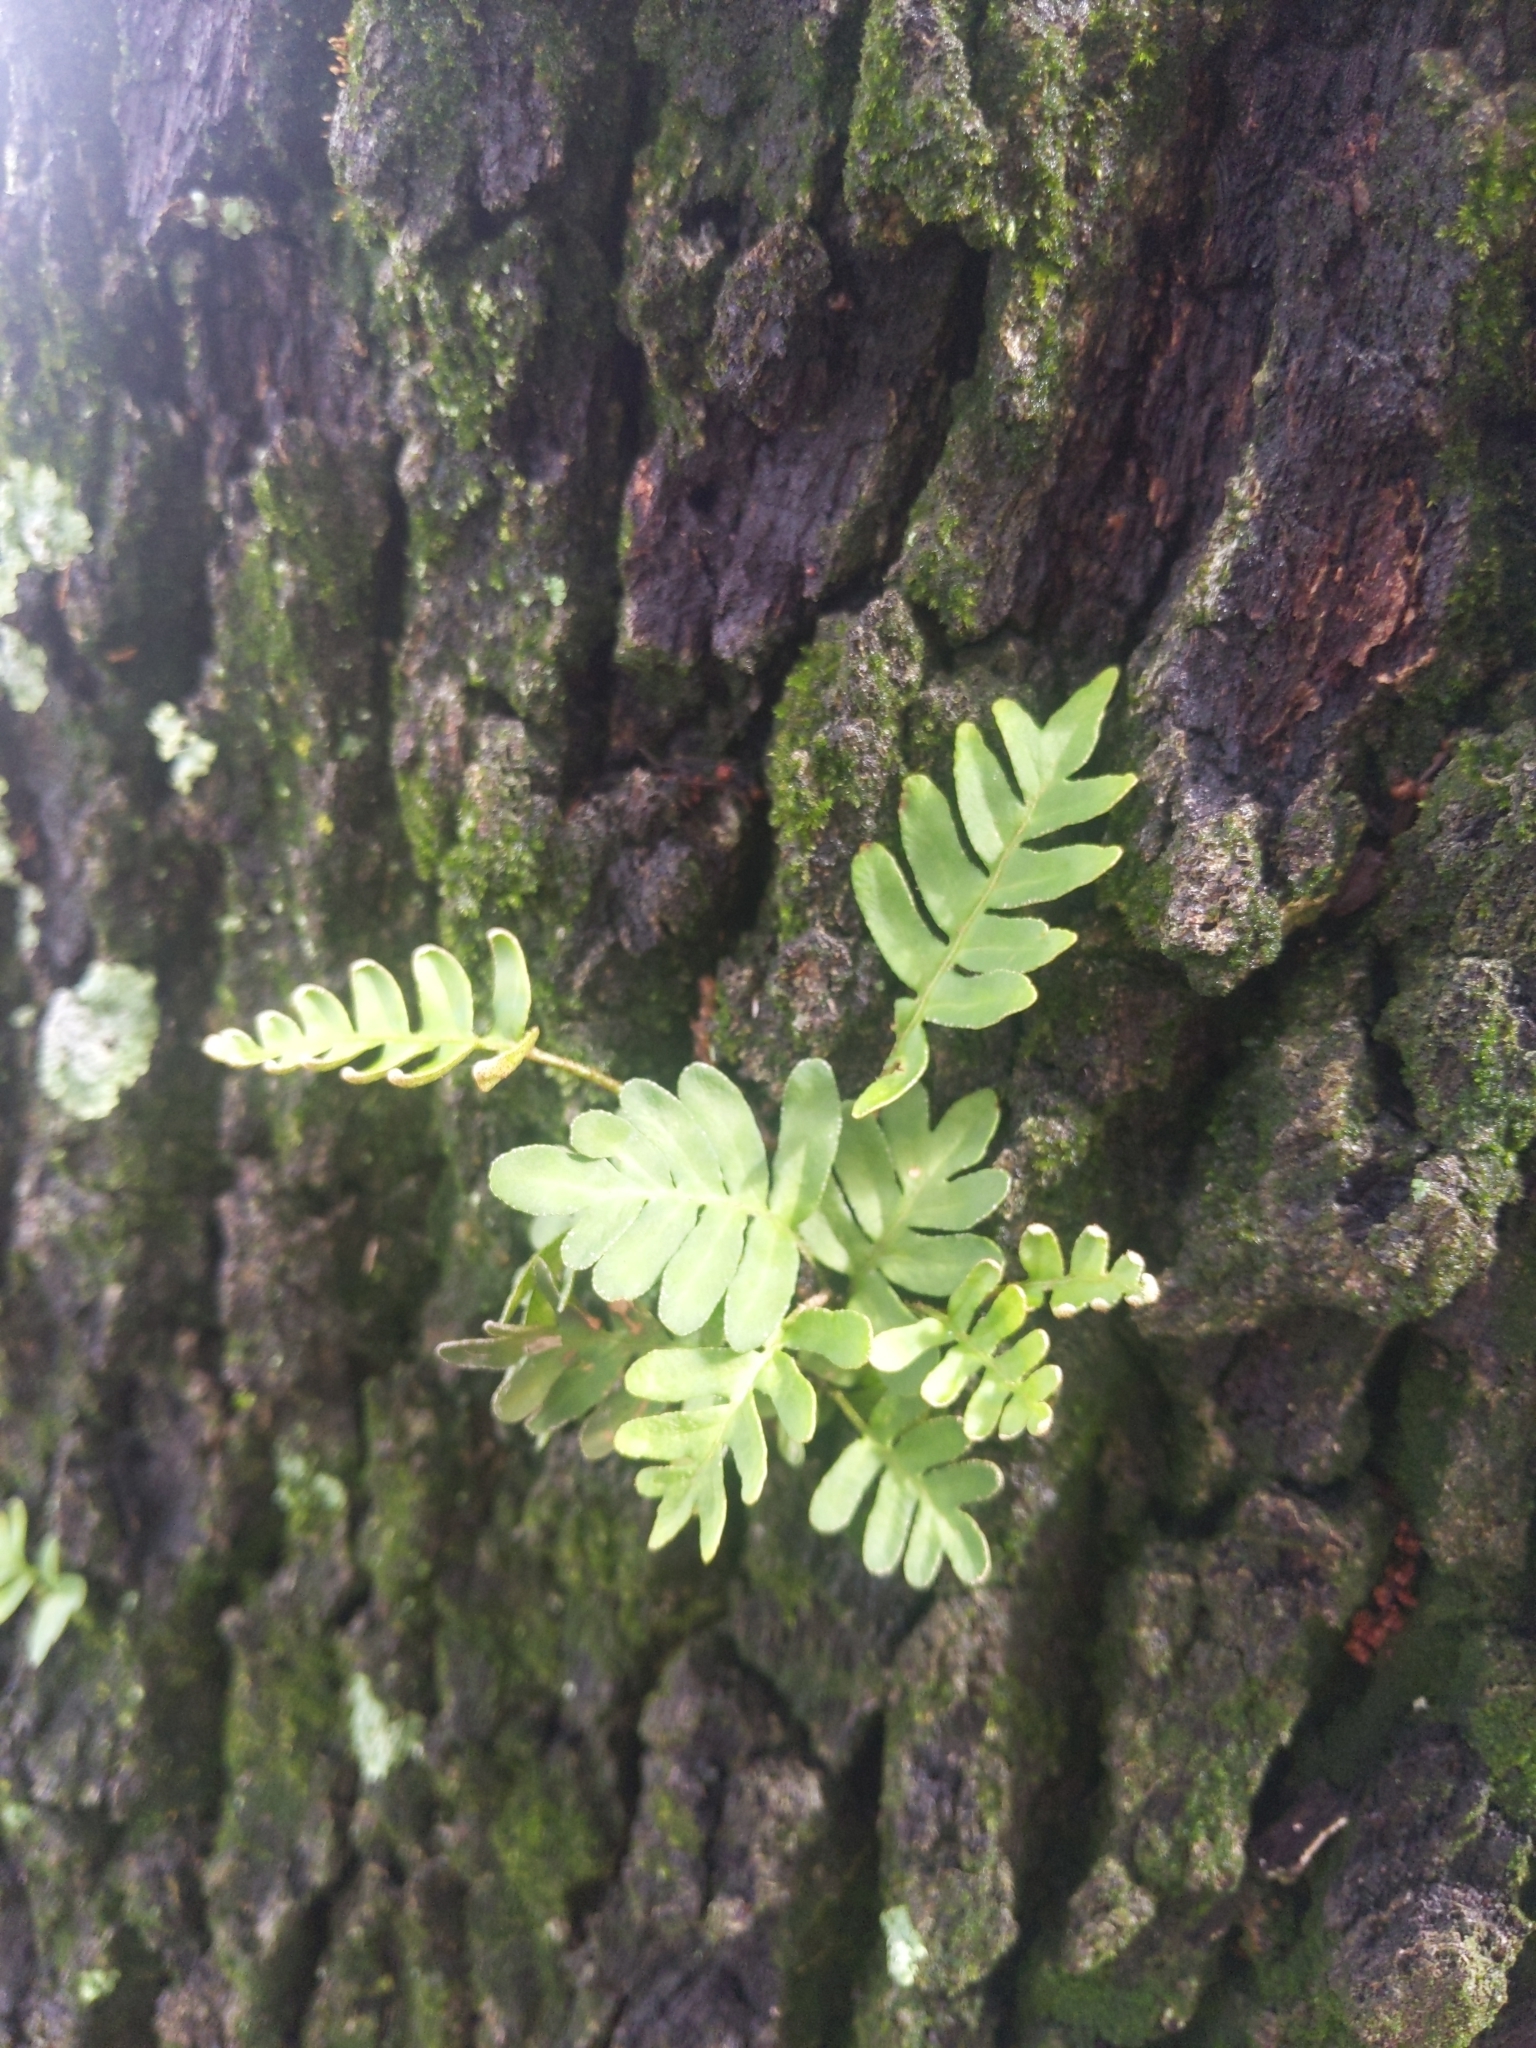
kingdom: Plantae
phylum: Tracheophyta
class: Polypodiopsida
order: Polypodiales
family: Polypodiaceae
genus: Pleopeltis
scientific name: Pleopeltis michauxiana
